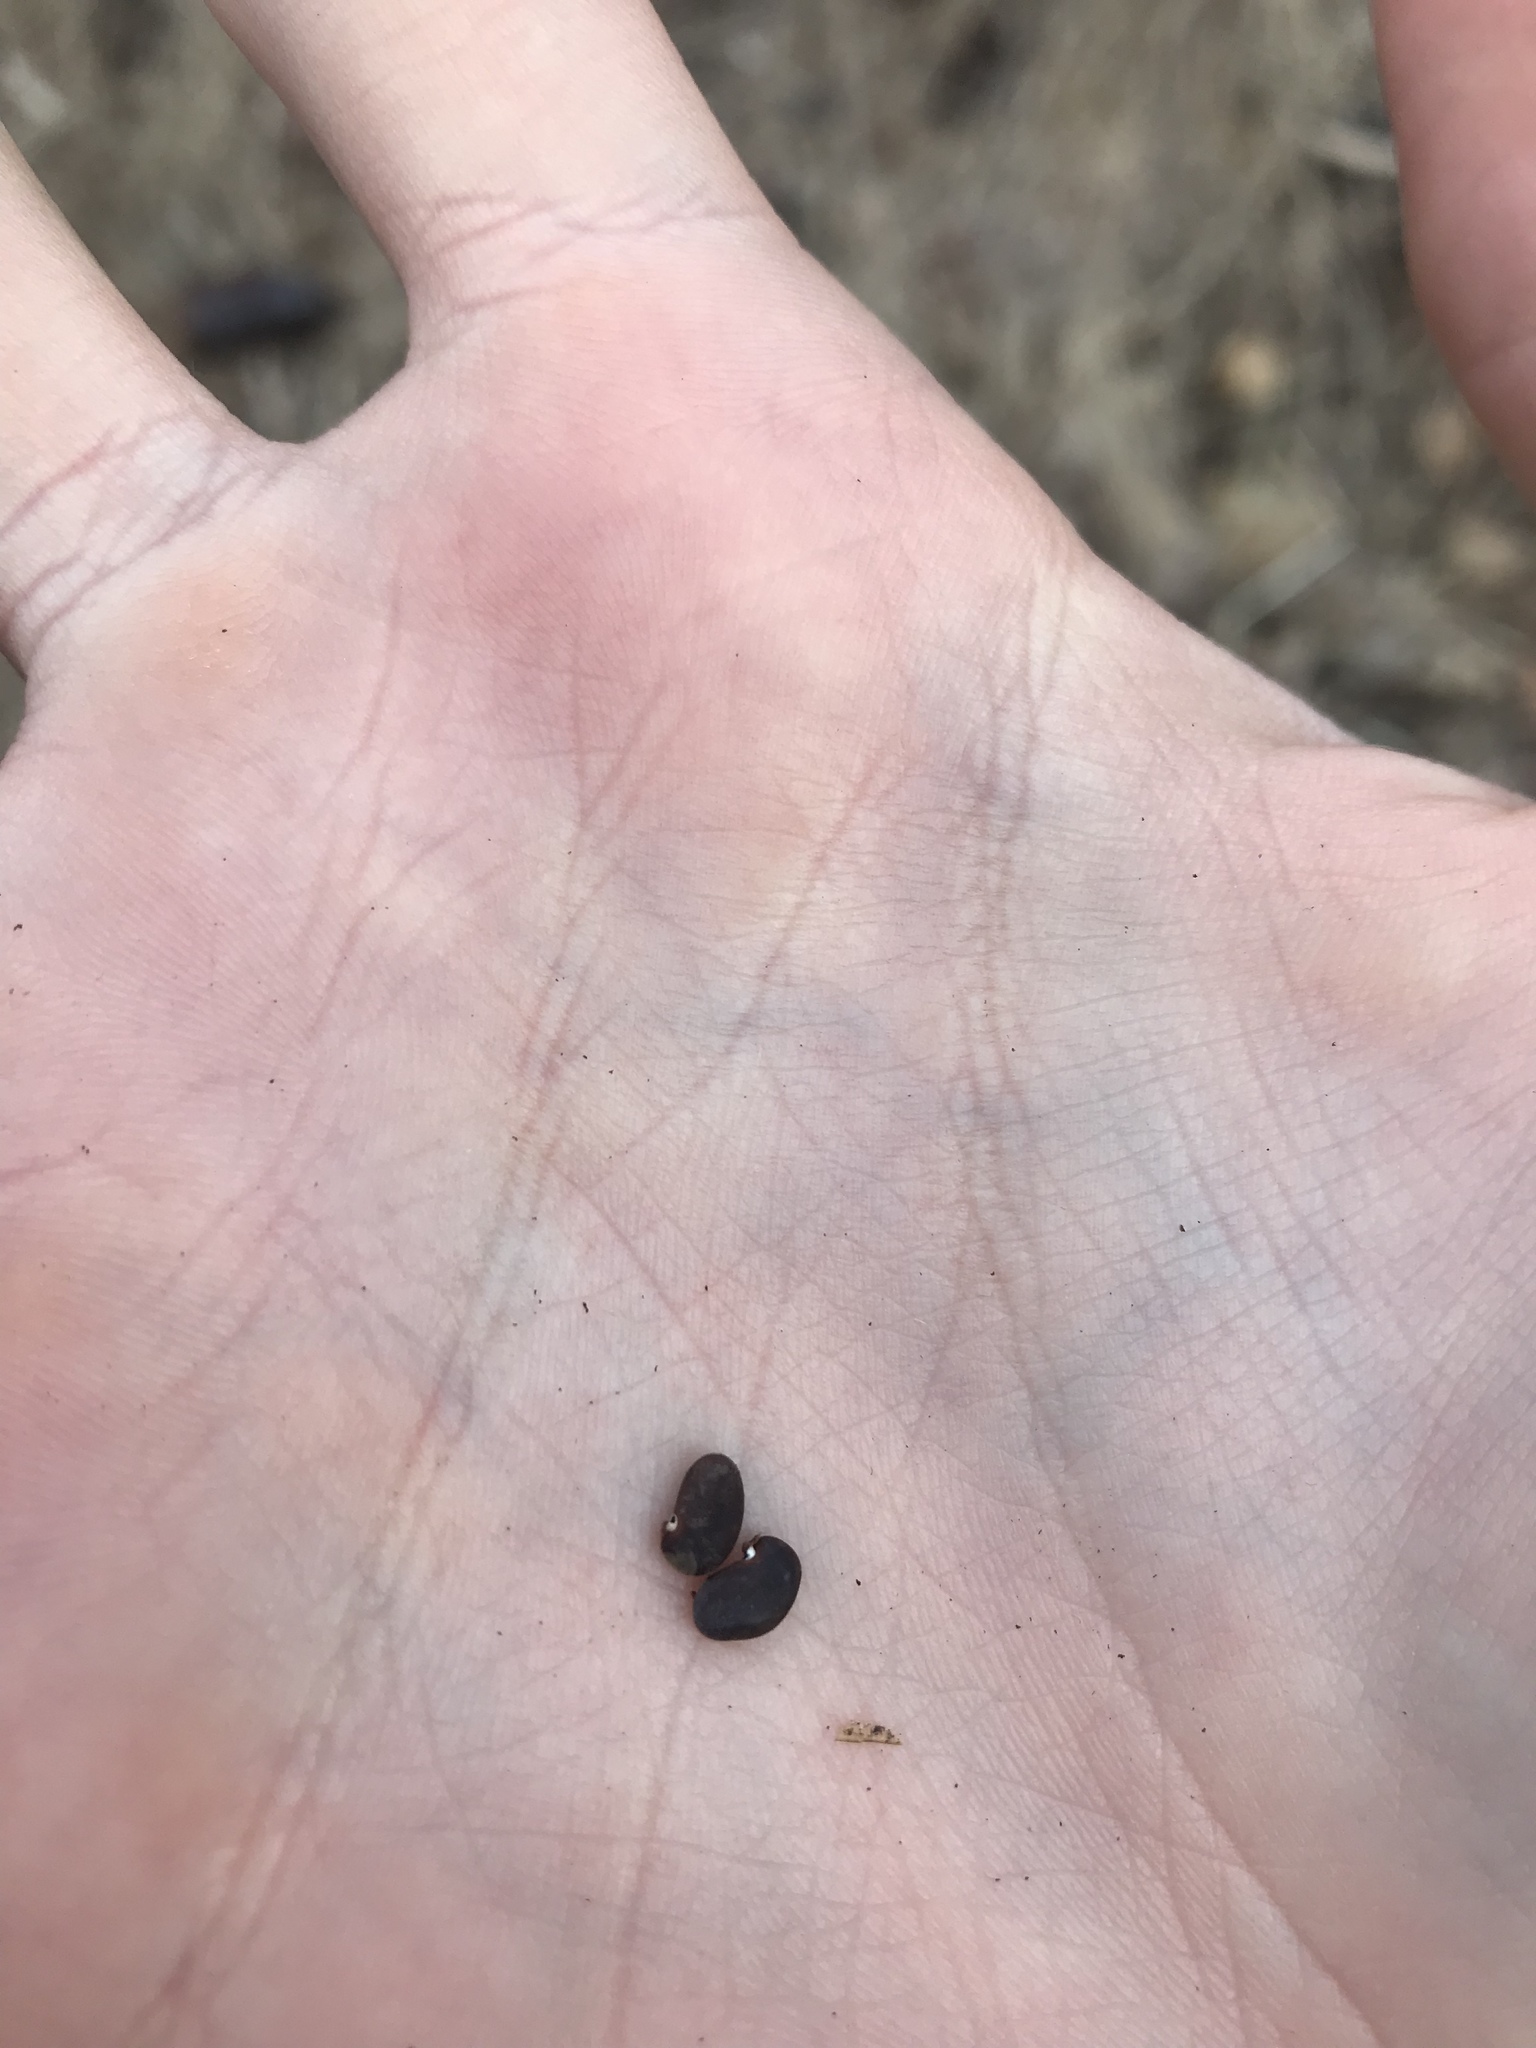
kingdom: Plantae
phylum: Tracheophyta
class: Magnoliopsida
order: Fabales
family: Fabaceae
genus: Robinia
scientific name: Robinia pseudoacacia
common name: Black locust
